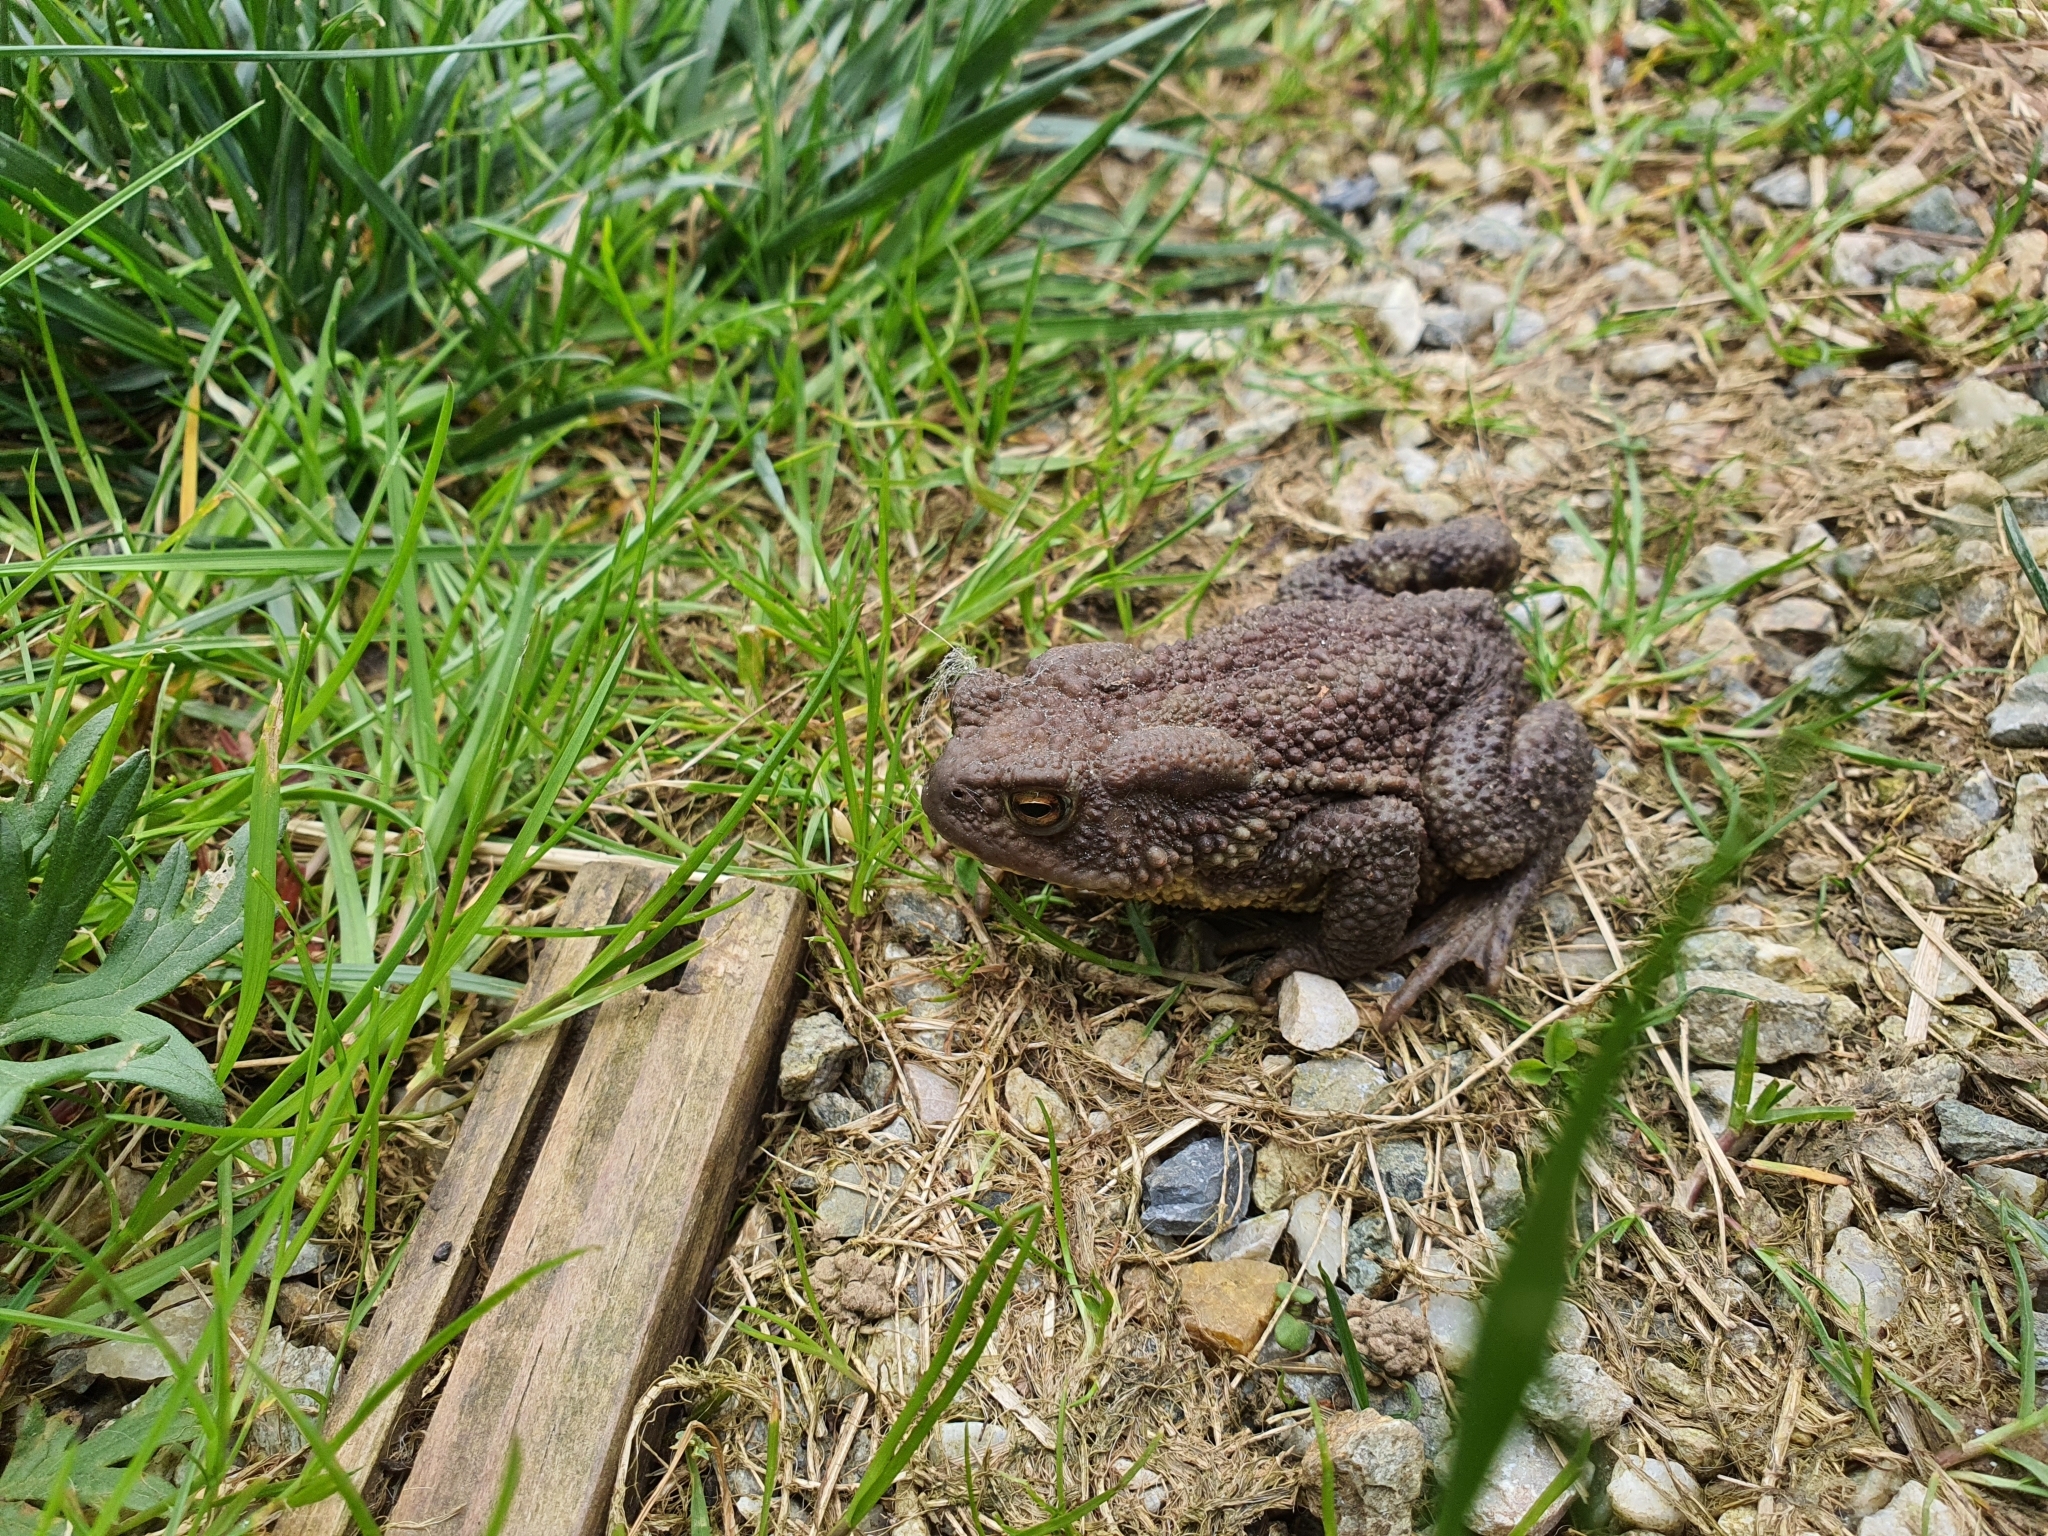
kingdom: Animalia
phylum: Chordata
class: Amphibia
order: Anura
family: Bufonidae
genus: Bufo
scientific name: Bufo bufo
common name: Common toad
